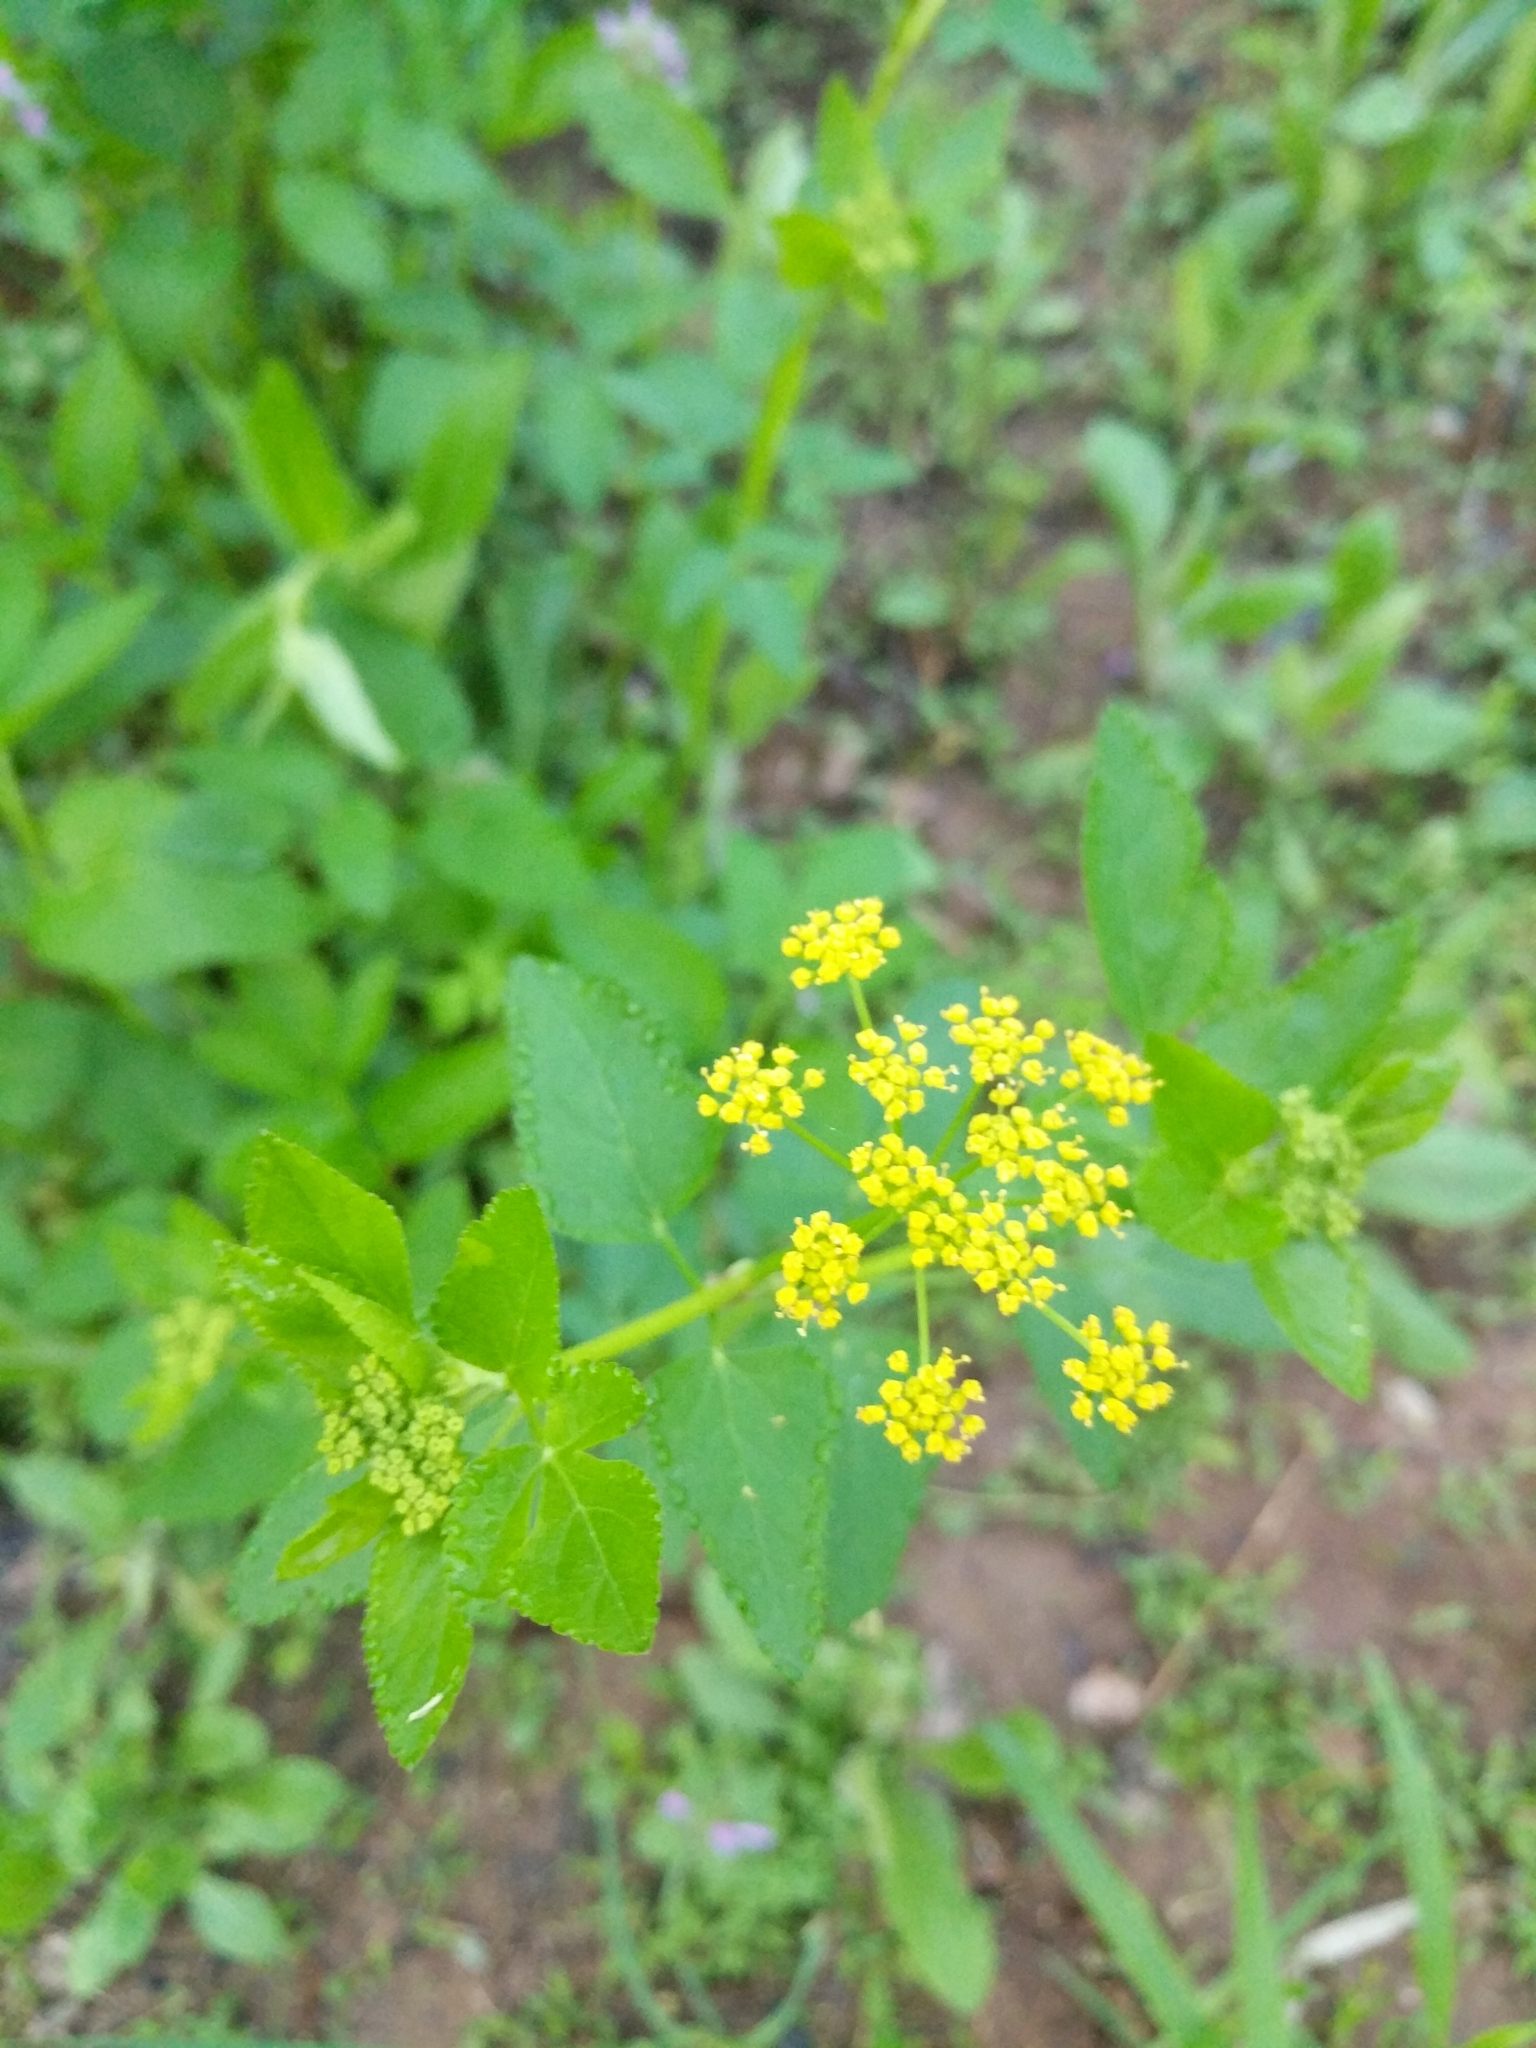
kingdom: Plantae
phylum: Tracheophyta
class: Magnoliopsida
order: Apiales
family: Apiaceae
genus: Thaspium
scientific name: Thaspium trifoliatum
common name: Purple meadow-parsnip
